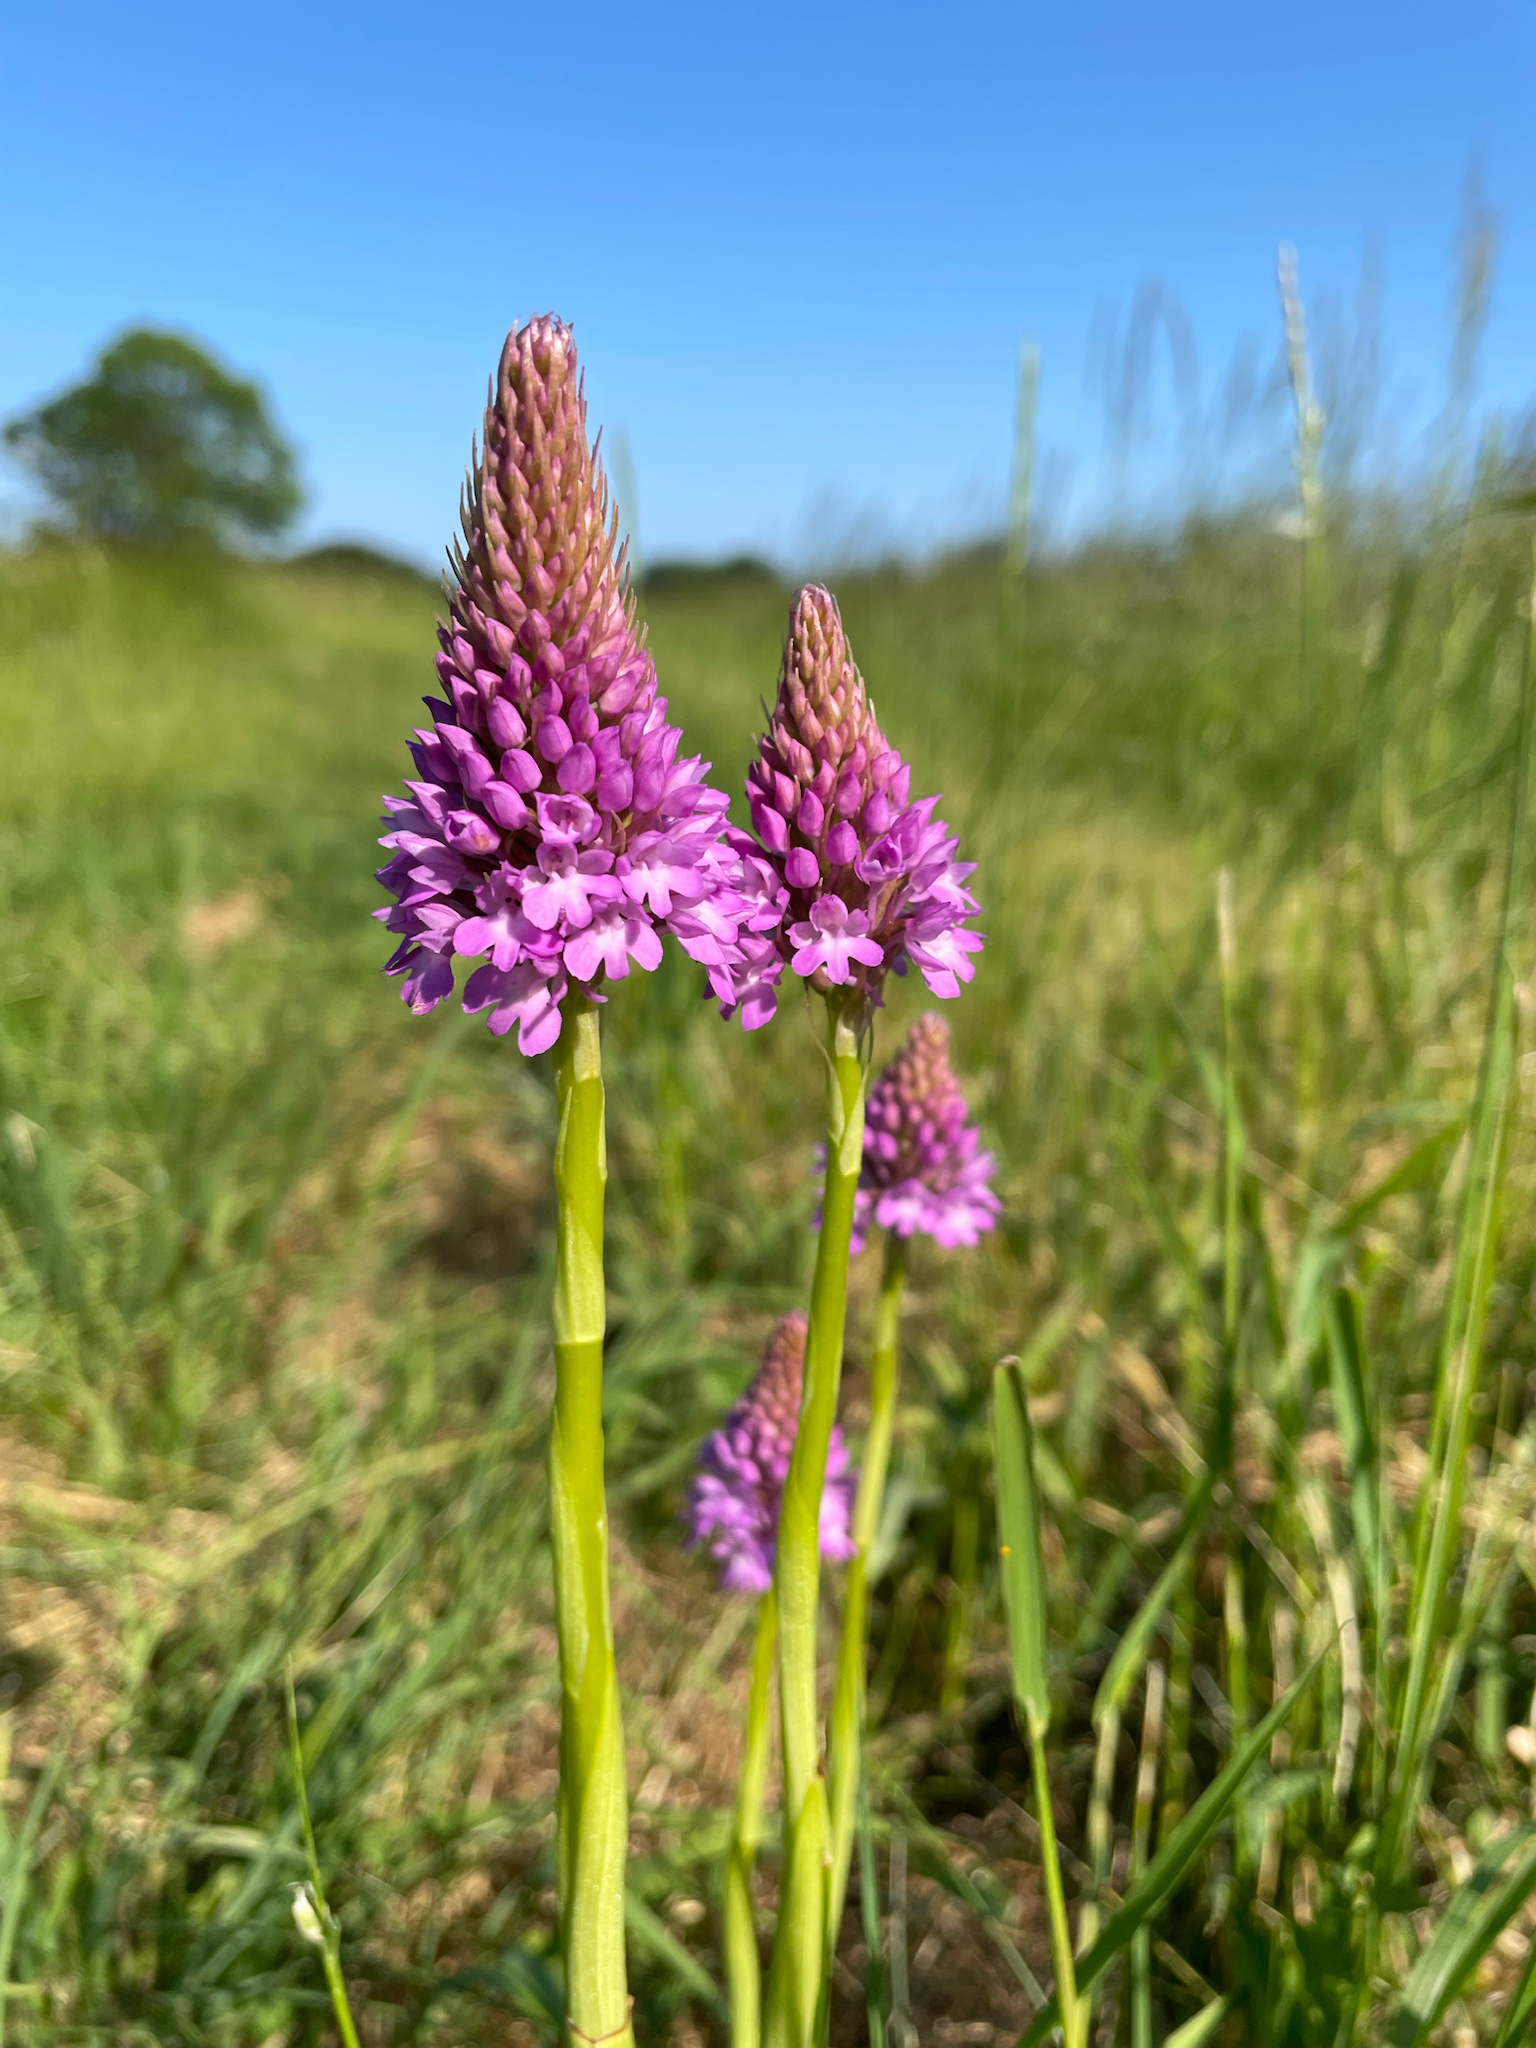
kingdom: Plantae
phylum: Tracheophyta
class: Liliopsida
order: Asparagales
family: Orchidaceae
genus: Anacamptis
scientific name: Anacamptis pyramidalis
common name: Pyramidal orchid
